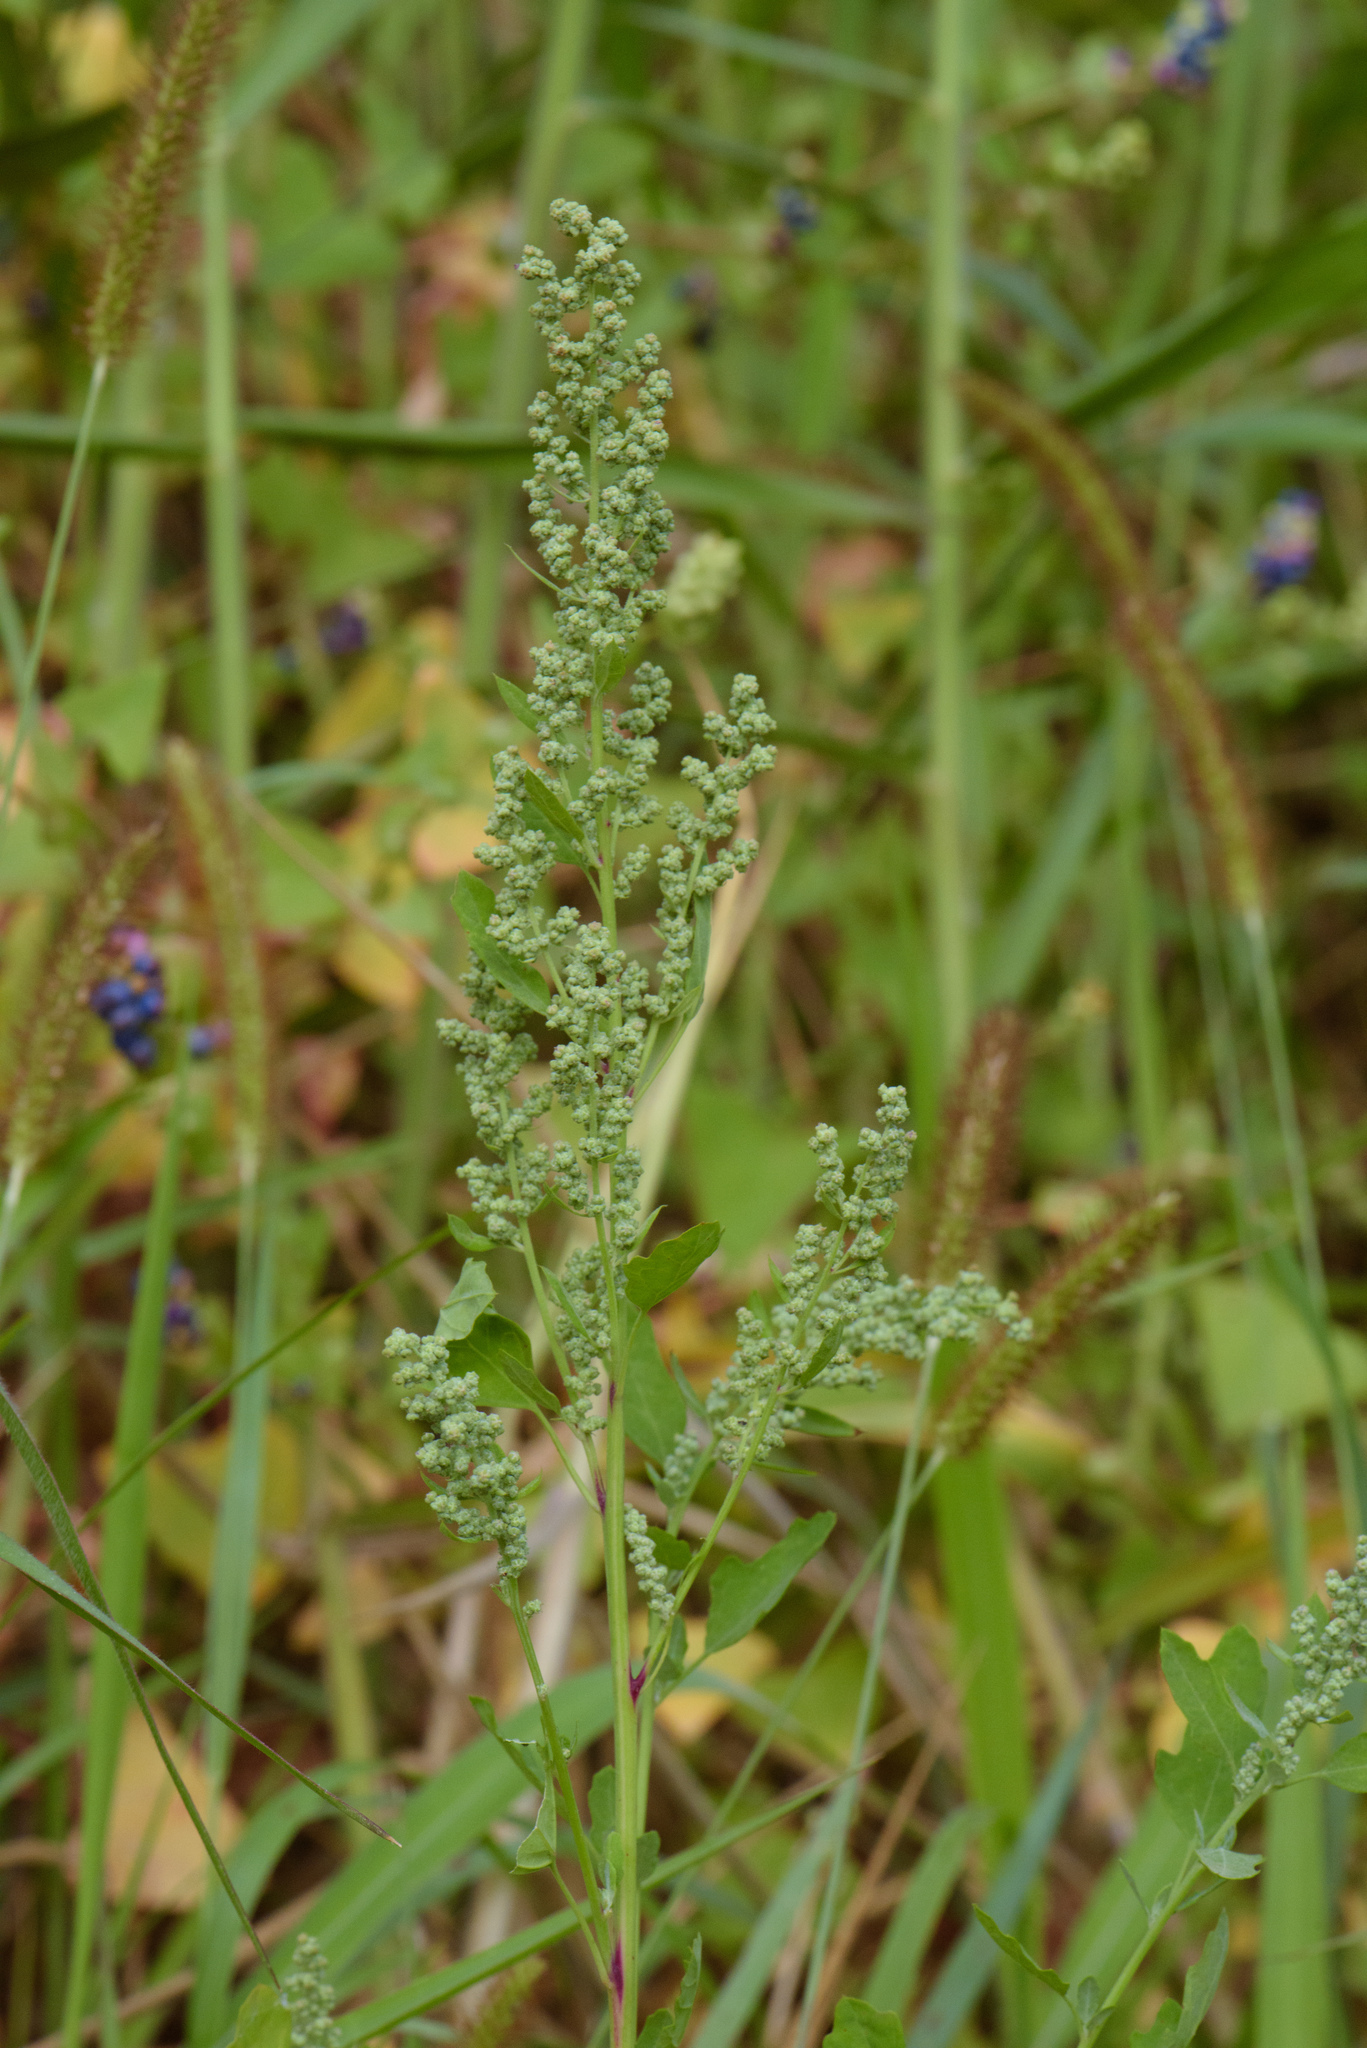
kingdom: Plantae
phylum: Tracheophyta
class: Magnoliopsida
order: Caryophyllales
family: Amaranthaceae
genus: Chenopodium
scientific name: Chenopodium ficifolium
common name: Fig-leaved goosefoot
